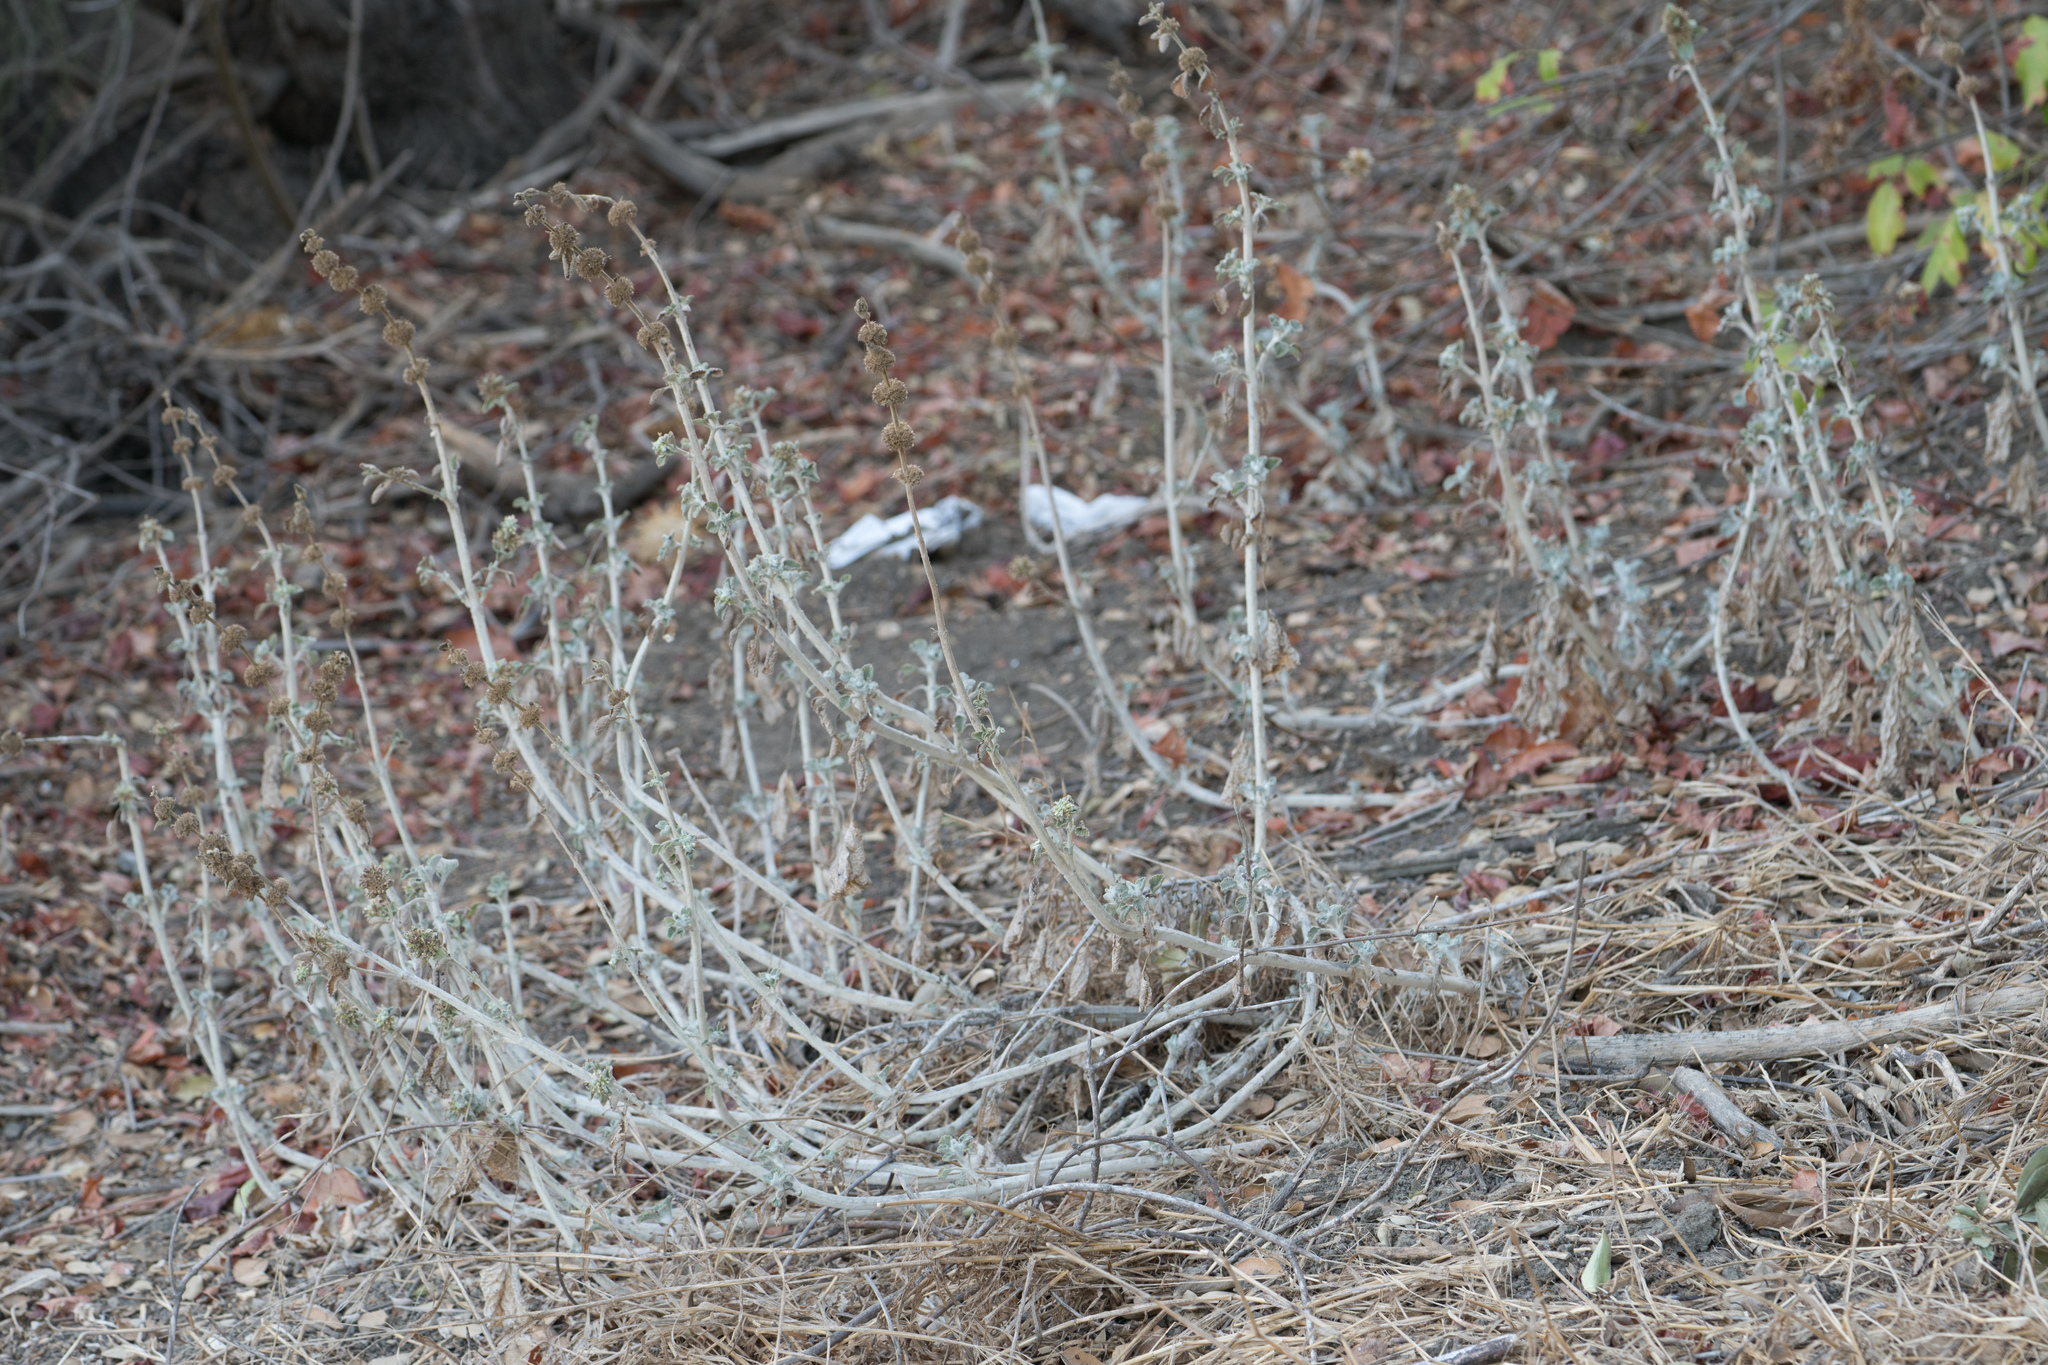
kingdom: Plantae
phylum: Tracheophyta
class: Magnoliopsida
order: Lamiales
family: Lamiaceae
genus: Salvia
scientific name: Salvia leucophylla
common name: Purple sage
